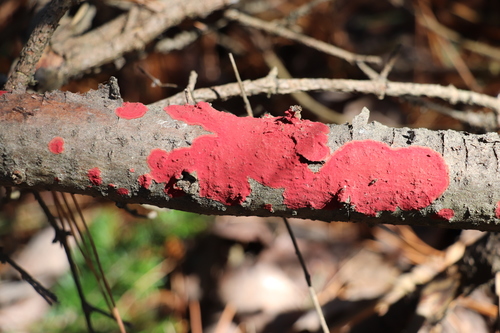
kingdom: Fungi
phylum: Basidiomycota
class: Agaricomycetes
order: Hymenochaetales
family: Hymenochaetaceae
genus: Hymenochaete
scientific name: Hymenochaete cruenta
